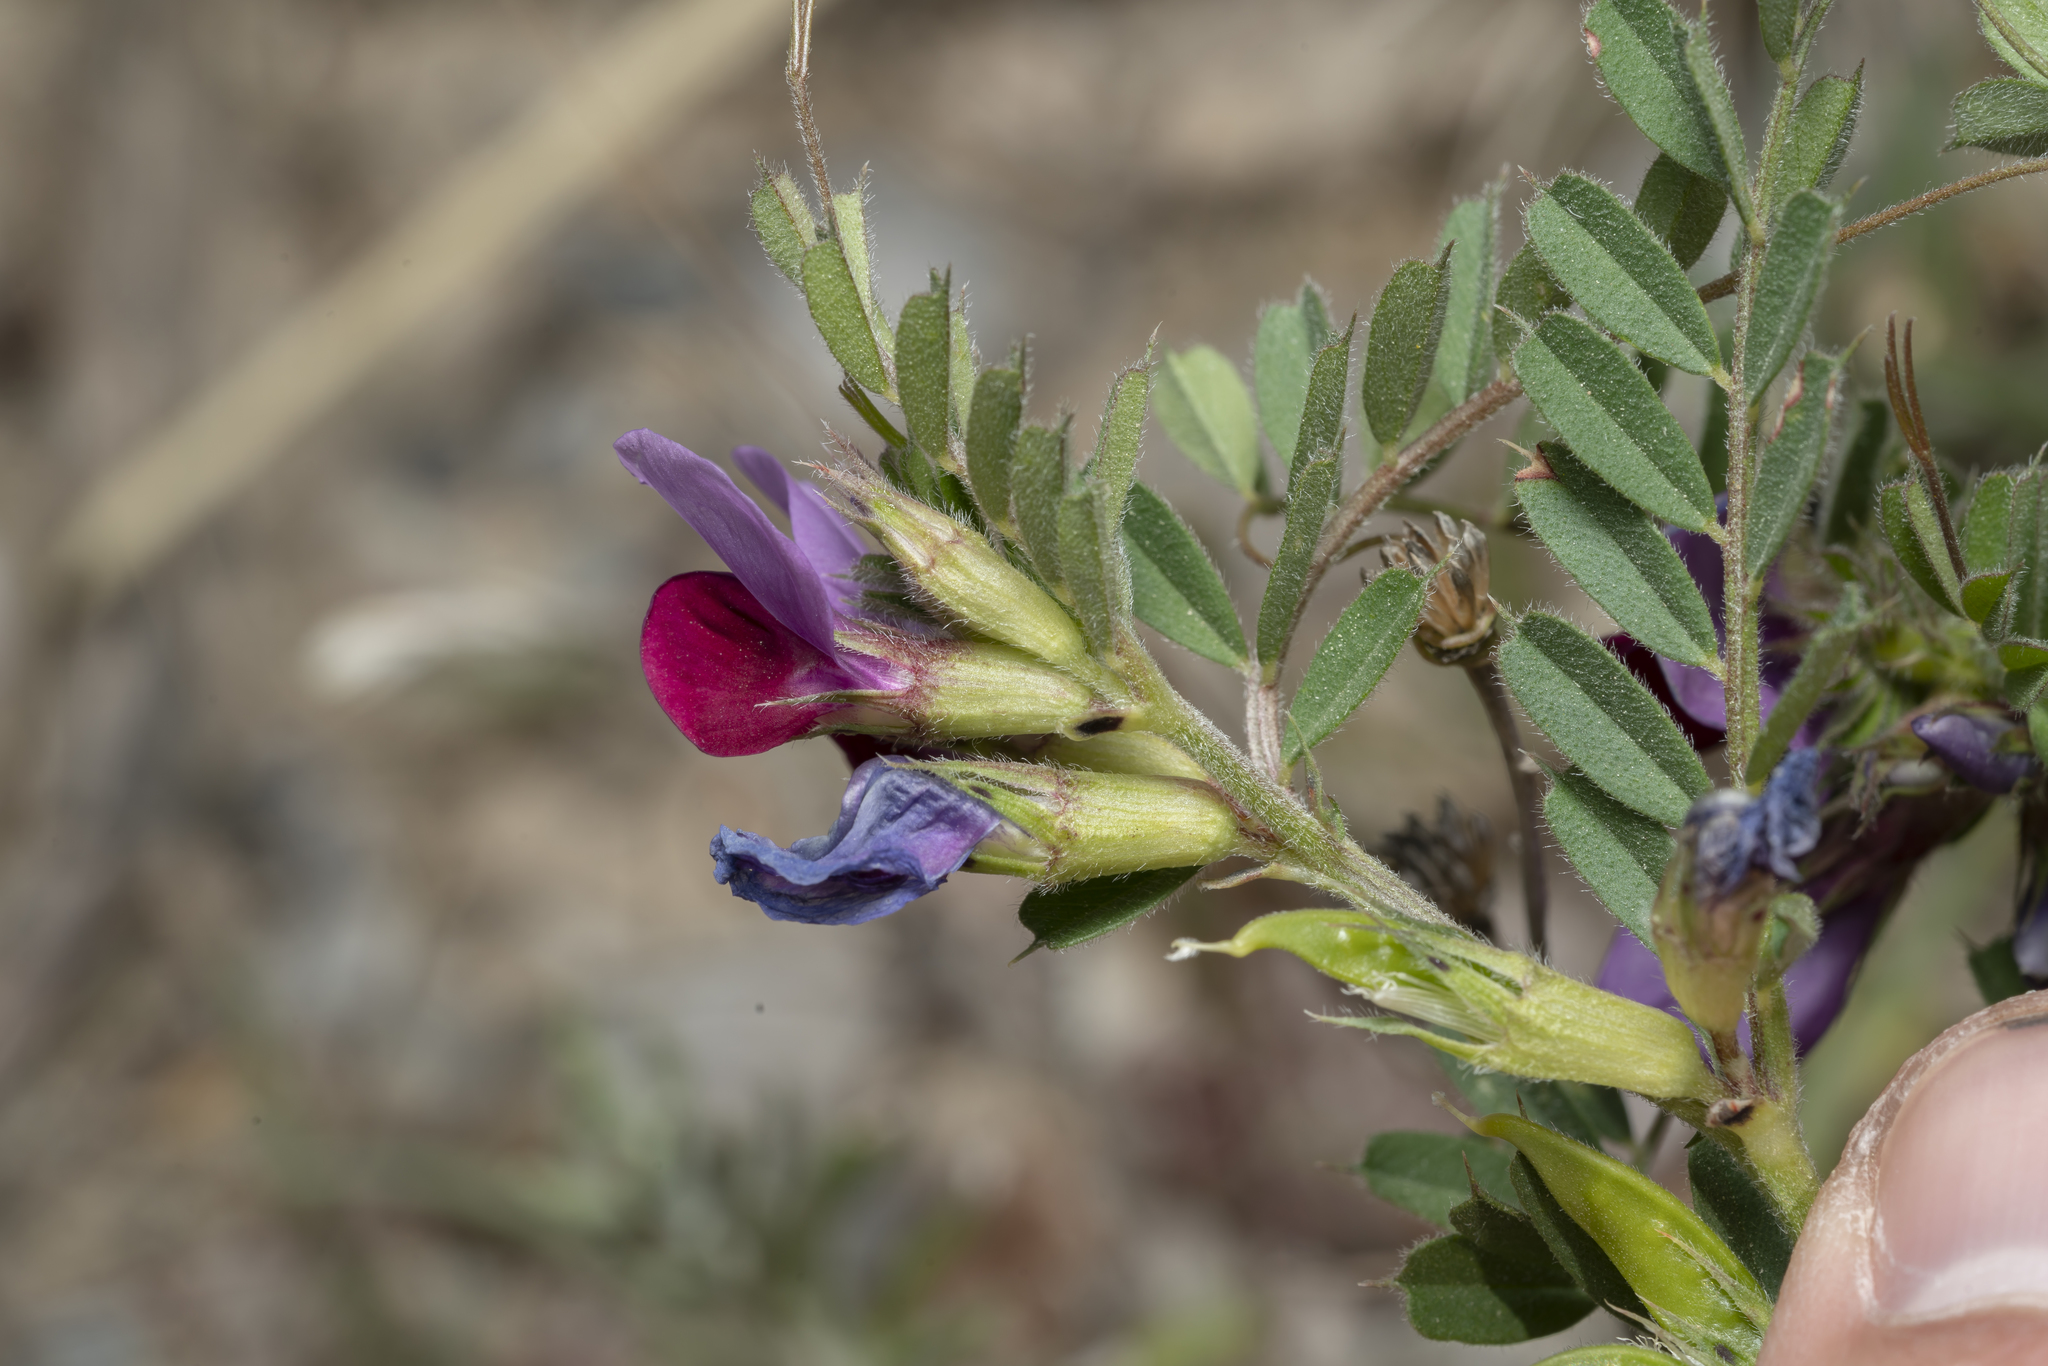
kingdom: Plantae
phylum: Tracheophyta
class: Magnoliopsida
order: Fabales
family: Fabaceae
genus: Vicia
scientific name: Vicia sativa
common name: Garden vetch
